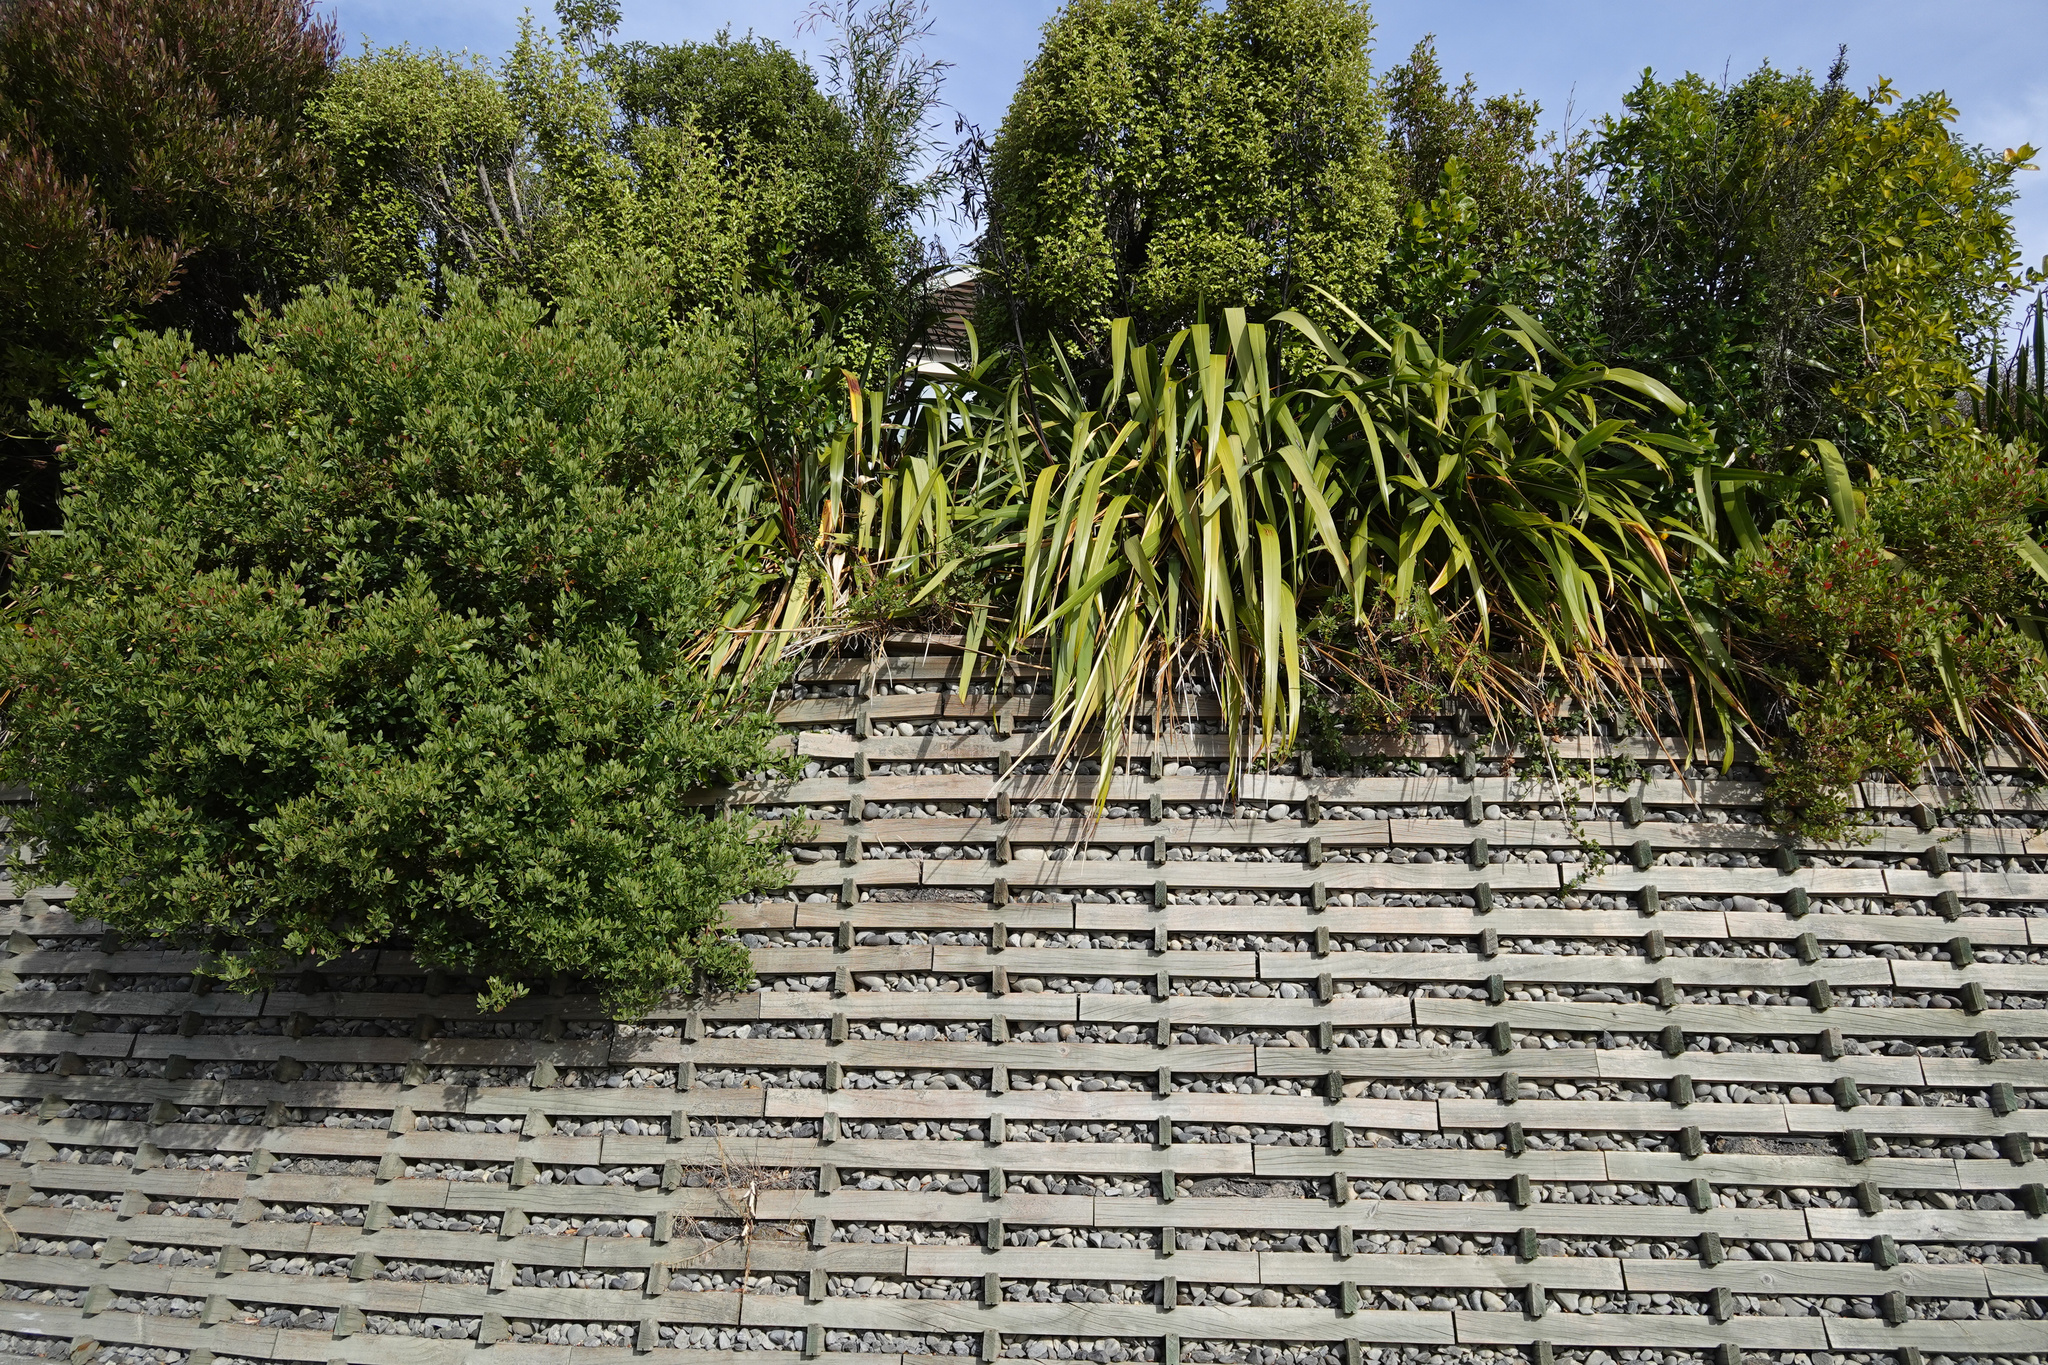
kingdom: Plantae
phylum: Tracheophyta
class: Magnoliopsida
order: Asterales
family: Asteraceae
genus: Osteospermum
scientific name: Osteospermum moniliferum
